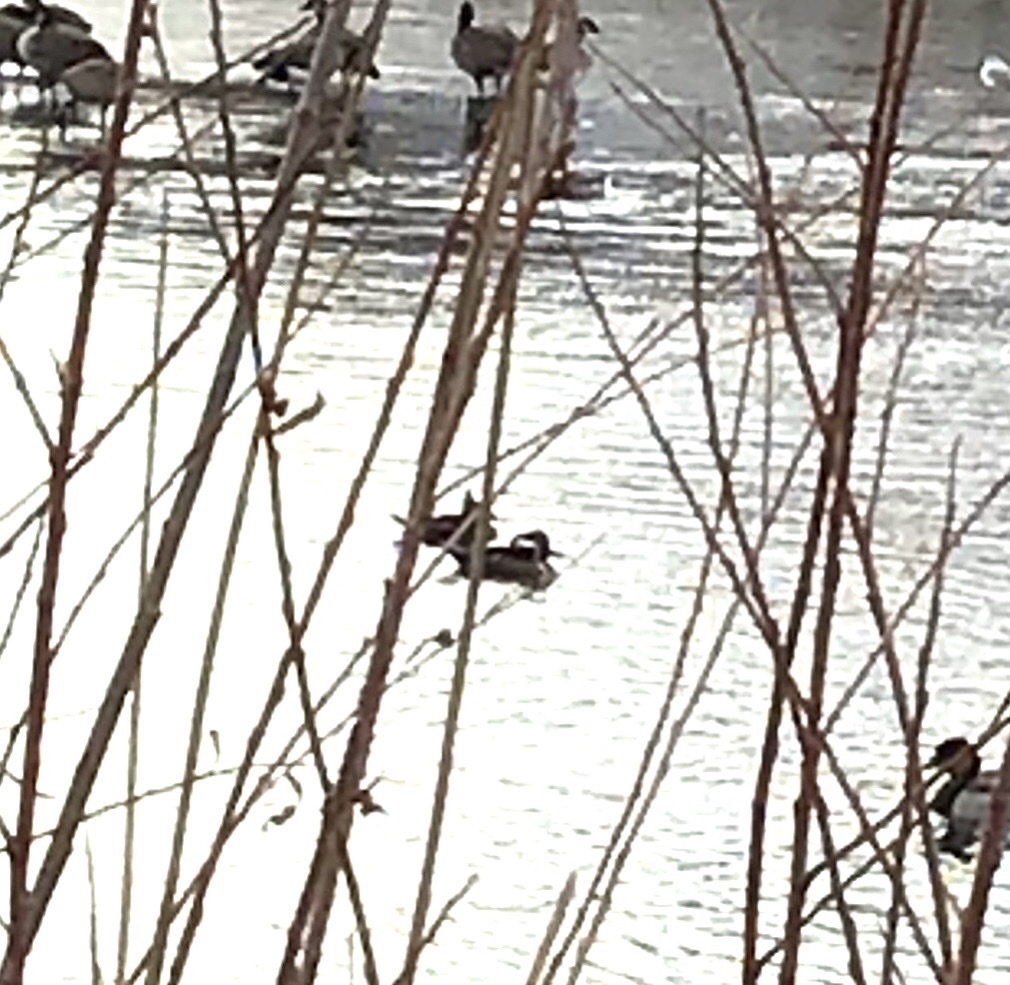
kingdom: Animalia
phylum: Chordata
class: Aves
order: Anseriformes
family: Anatidae
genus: Lophodytes
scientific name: Lophodytes cucullatus
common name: Hooded merganser
